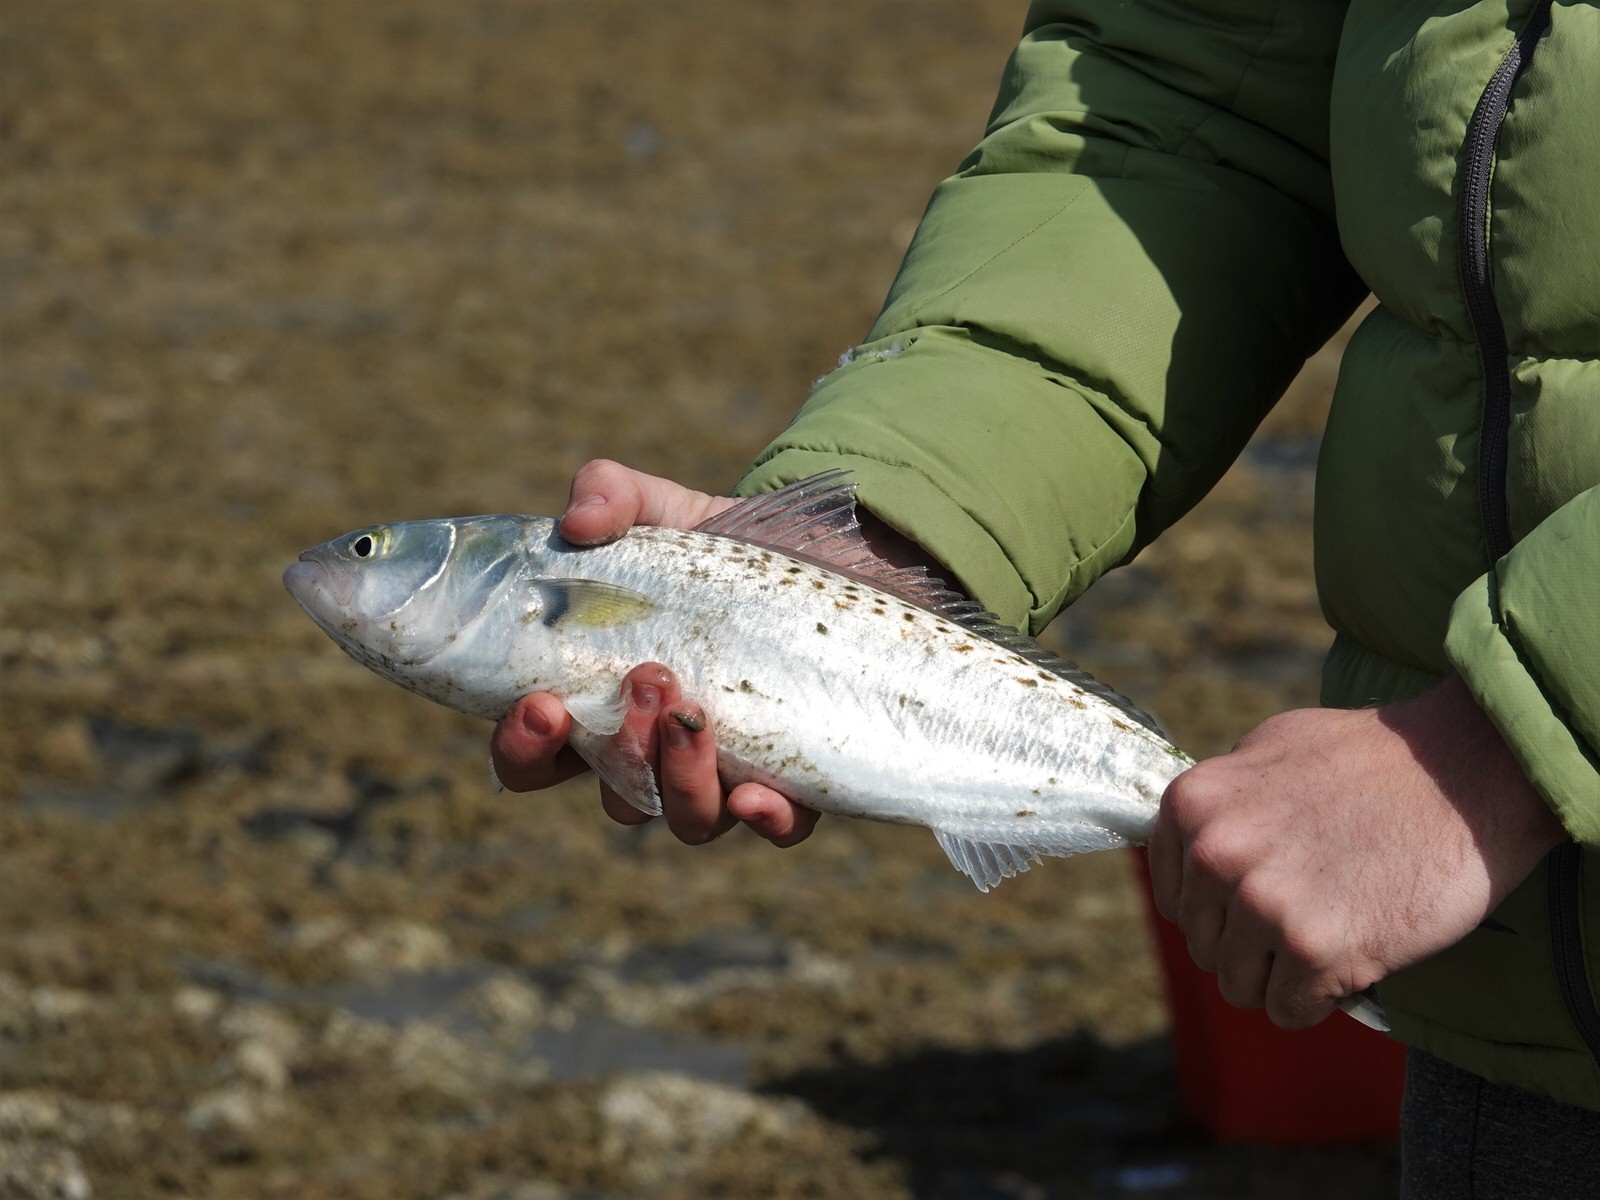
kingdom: Animalia
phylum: Chordata
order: Perciformes
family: Arripidae
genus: Arripis
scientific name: Arripis trutta
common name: Kahawai
